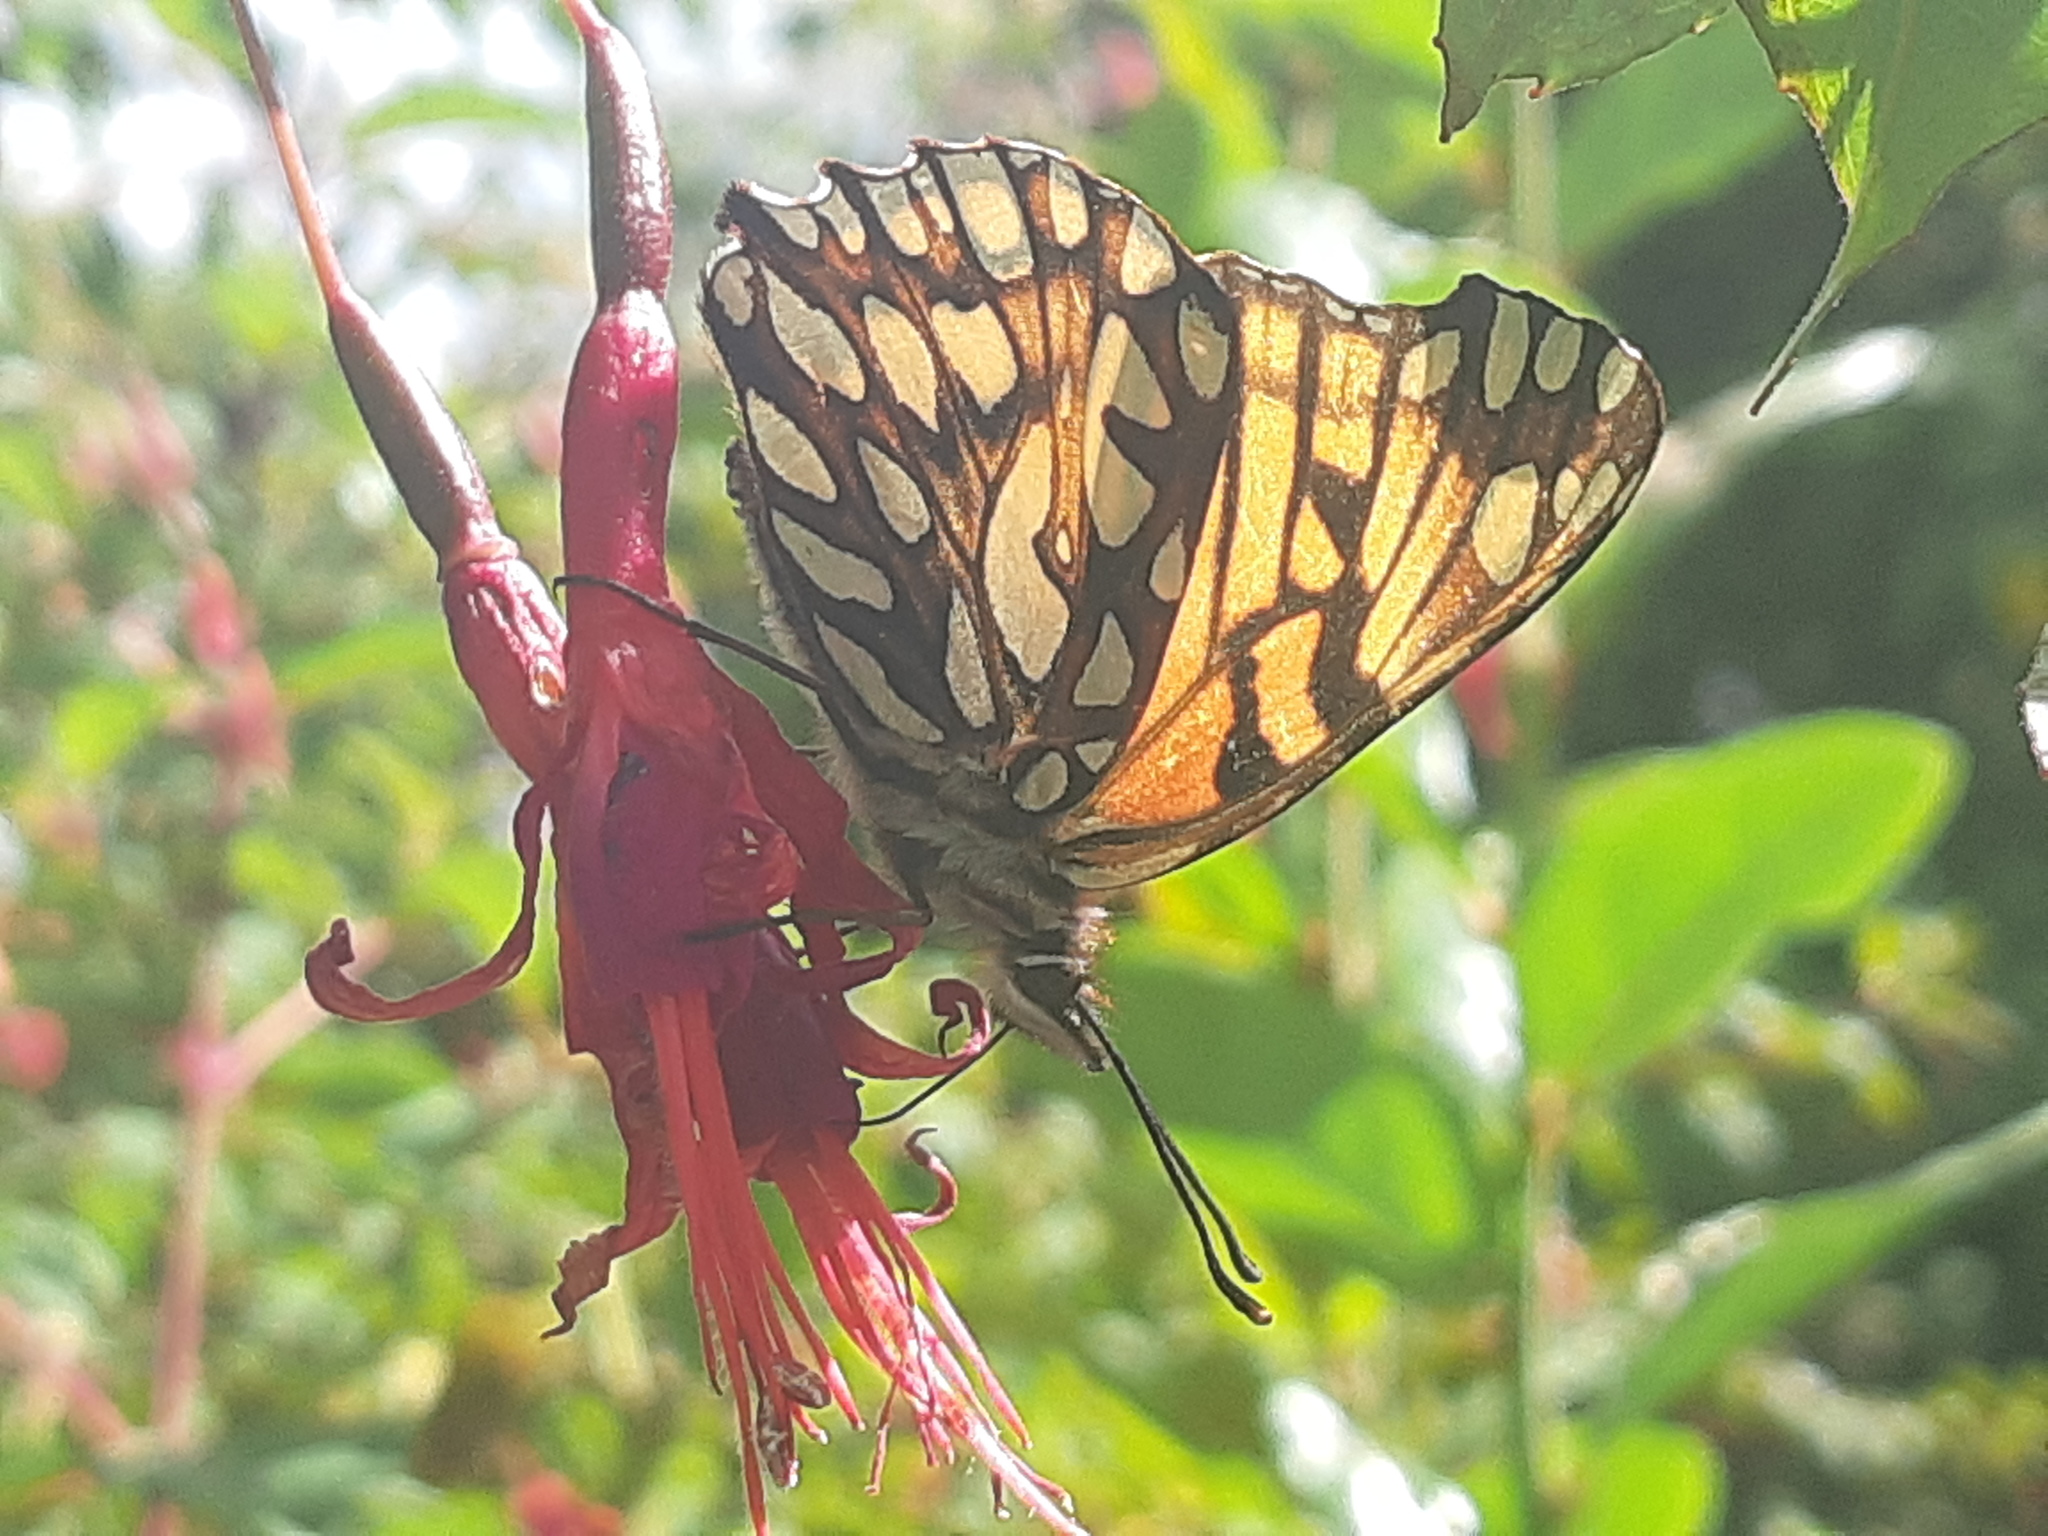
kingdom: Animalia
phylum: Arthropoda
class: Insecta
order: Lepidoptera
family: Nymphalidae
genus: Dione
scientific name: Dione glycera
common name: Andean silverspot
